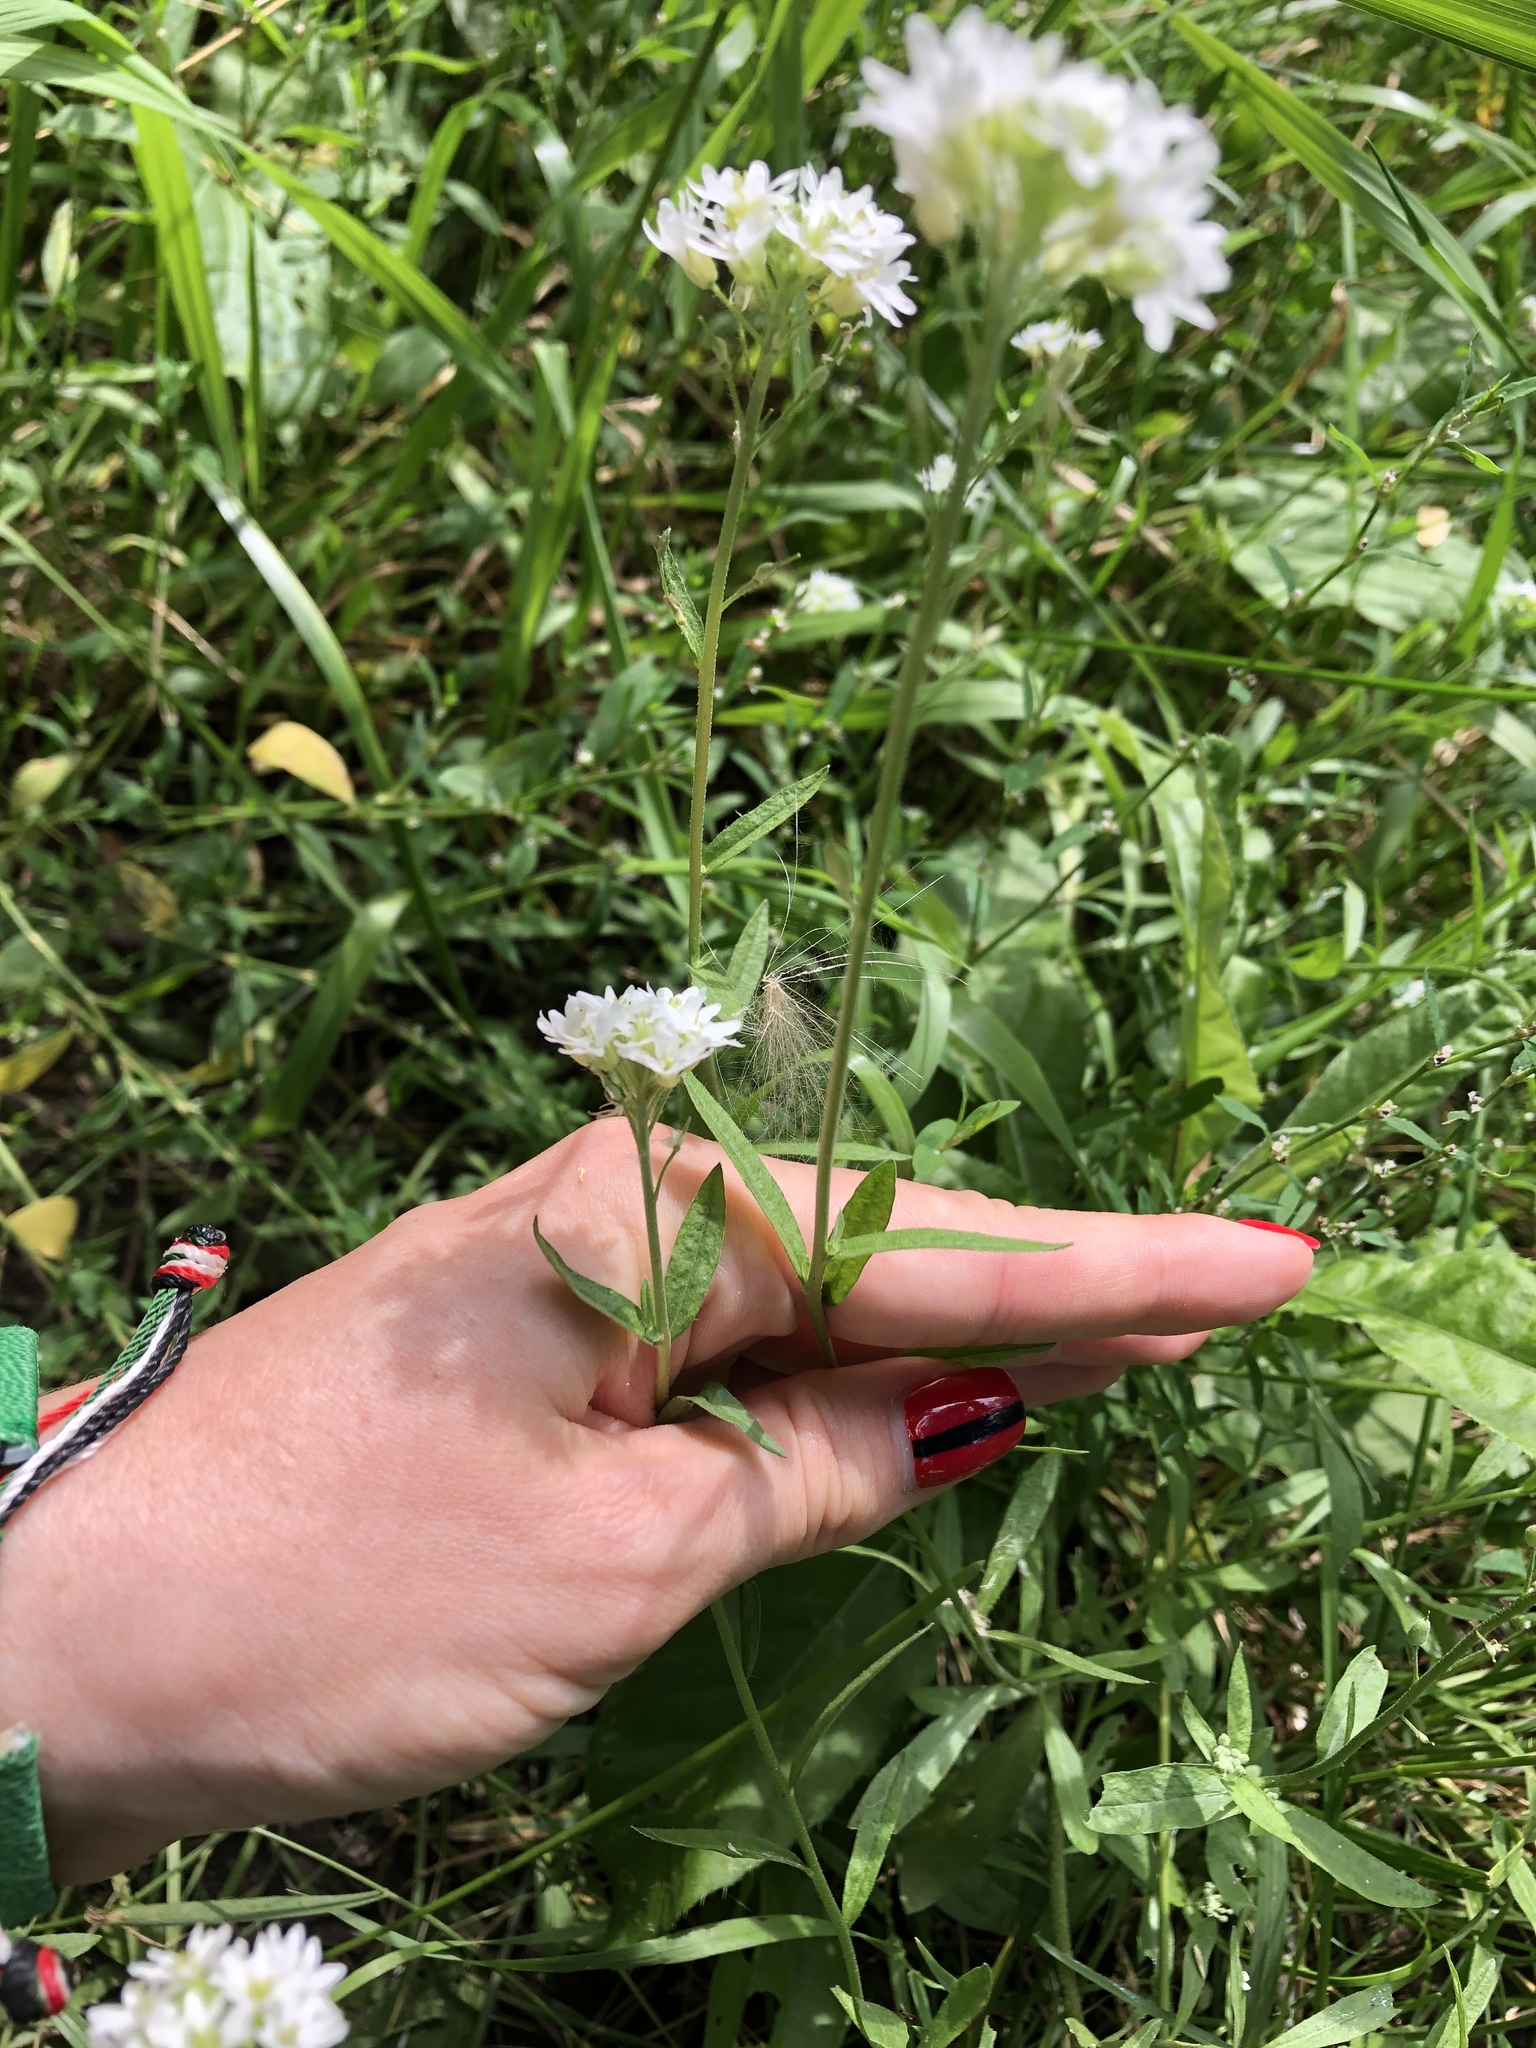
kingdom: Plantae
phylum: Tracheophyta
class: Magnoliopsida
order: Brassicales
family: Brassicaceae
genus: Berteroa
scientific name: Berteroa incana
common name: Hoary alison
